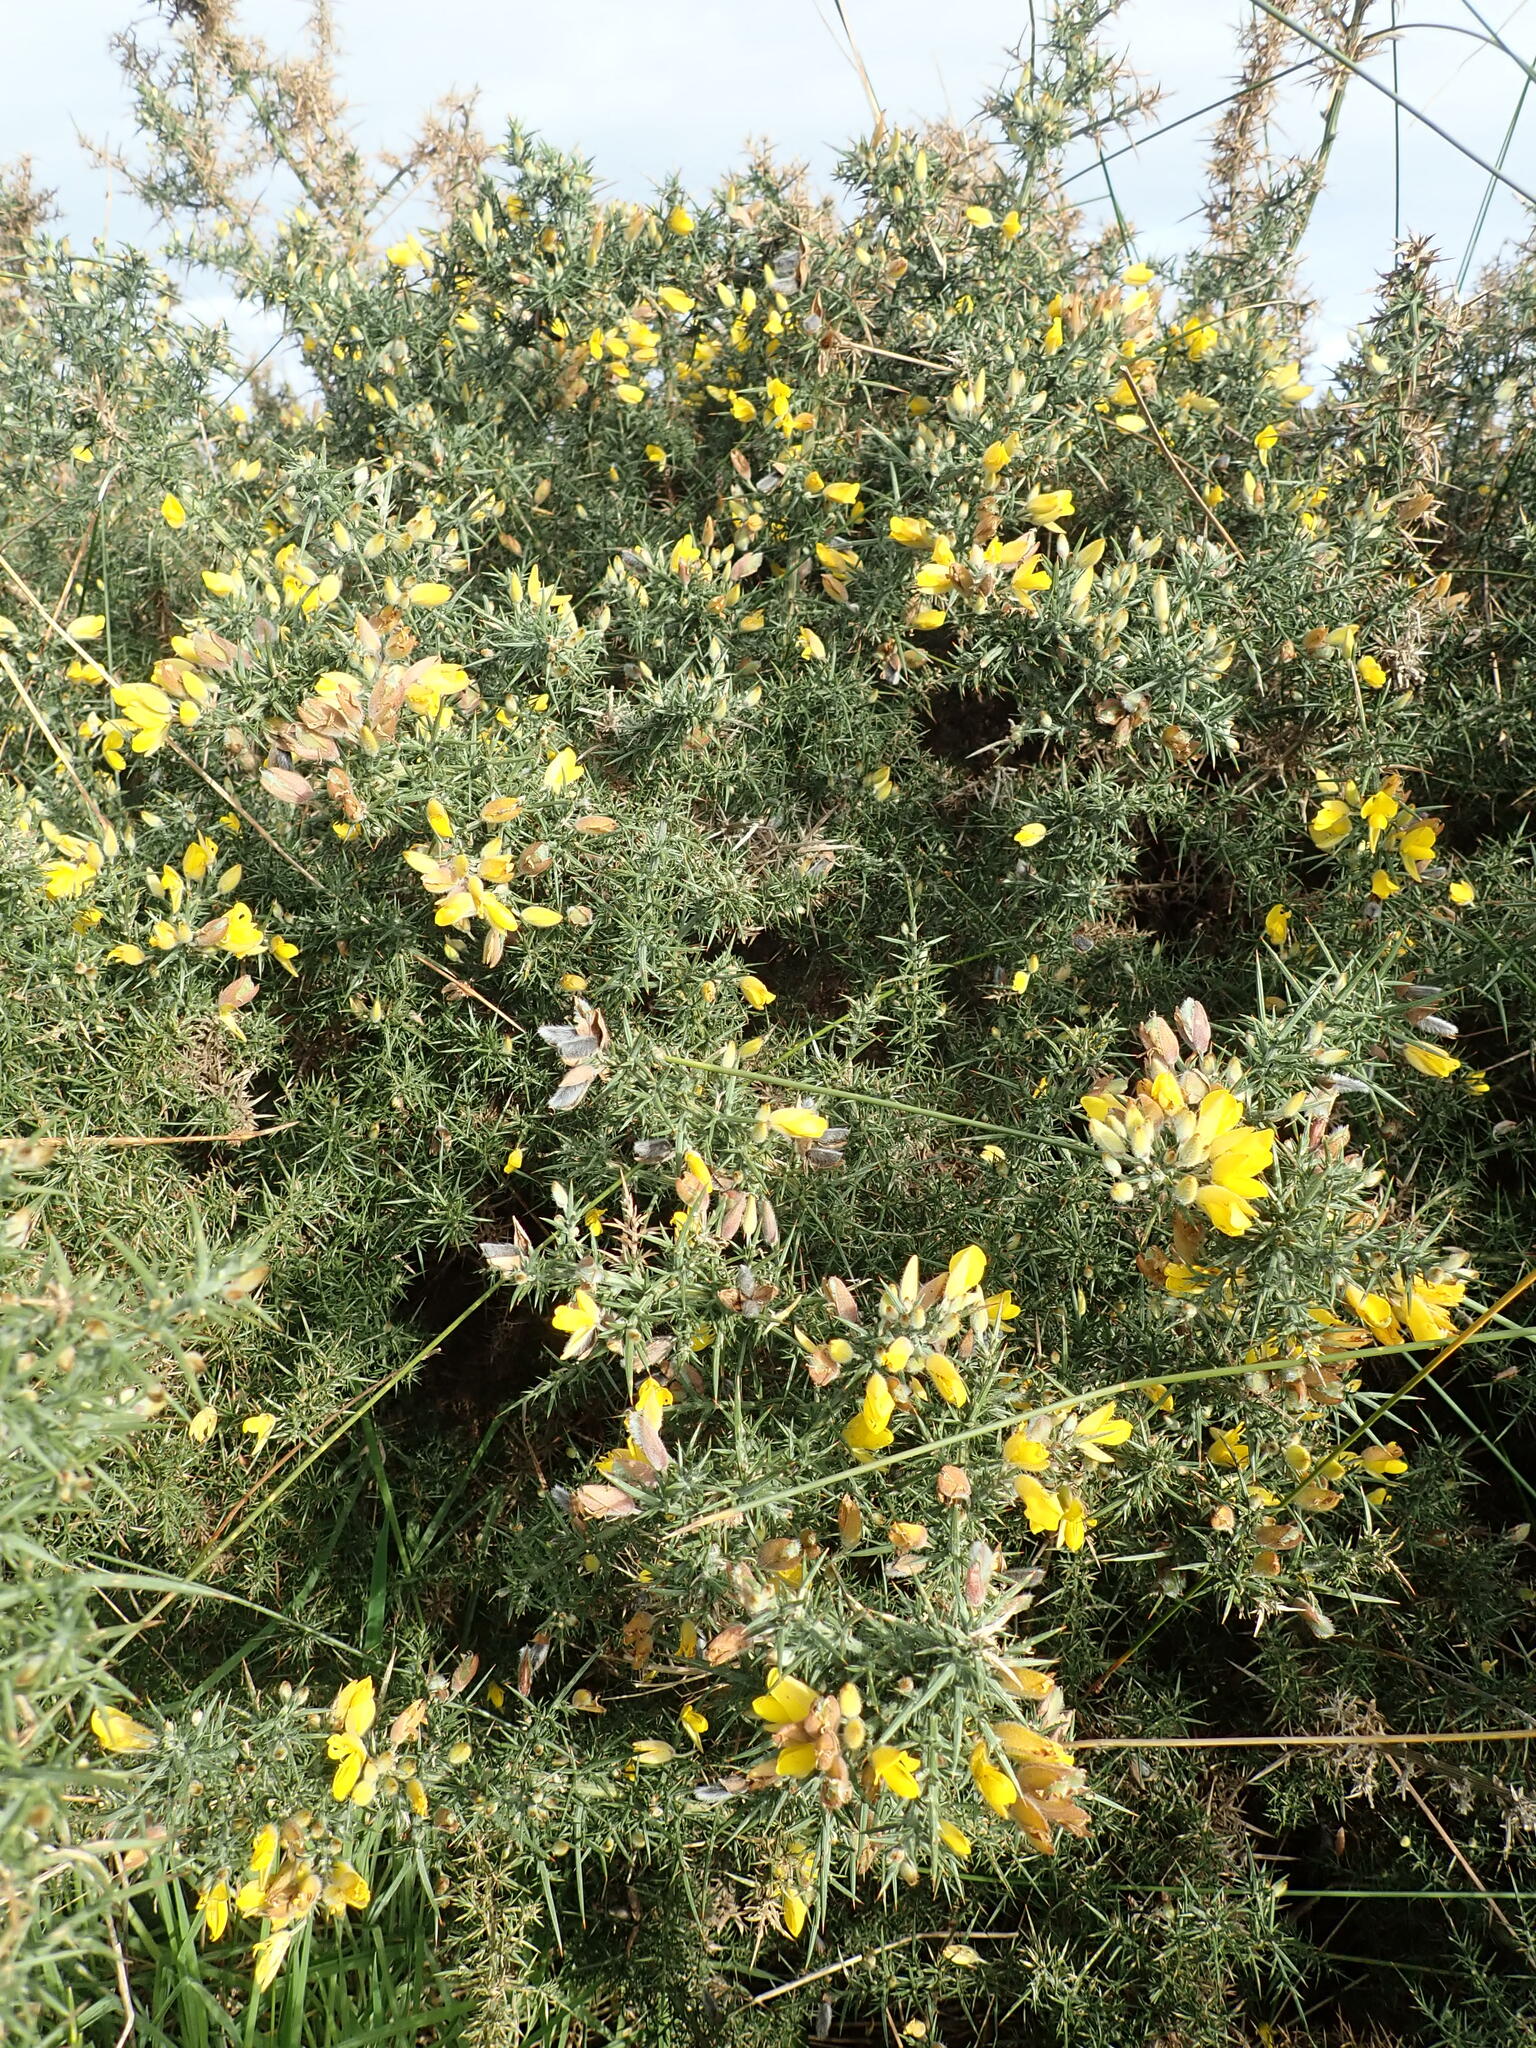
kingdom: Plantae
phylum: Tracheophyta
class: Magnoliopsida
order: Fabales
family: Fabaceae
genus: Ulex
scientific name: Ulex europaeus
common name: Common gorse
